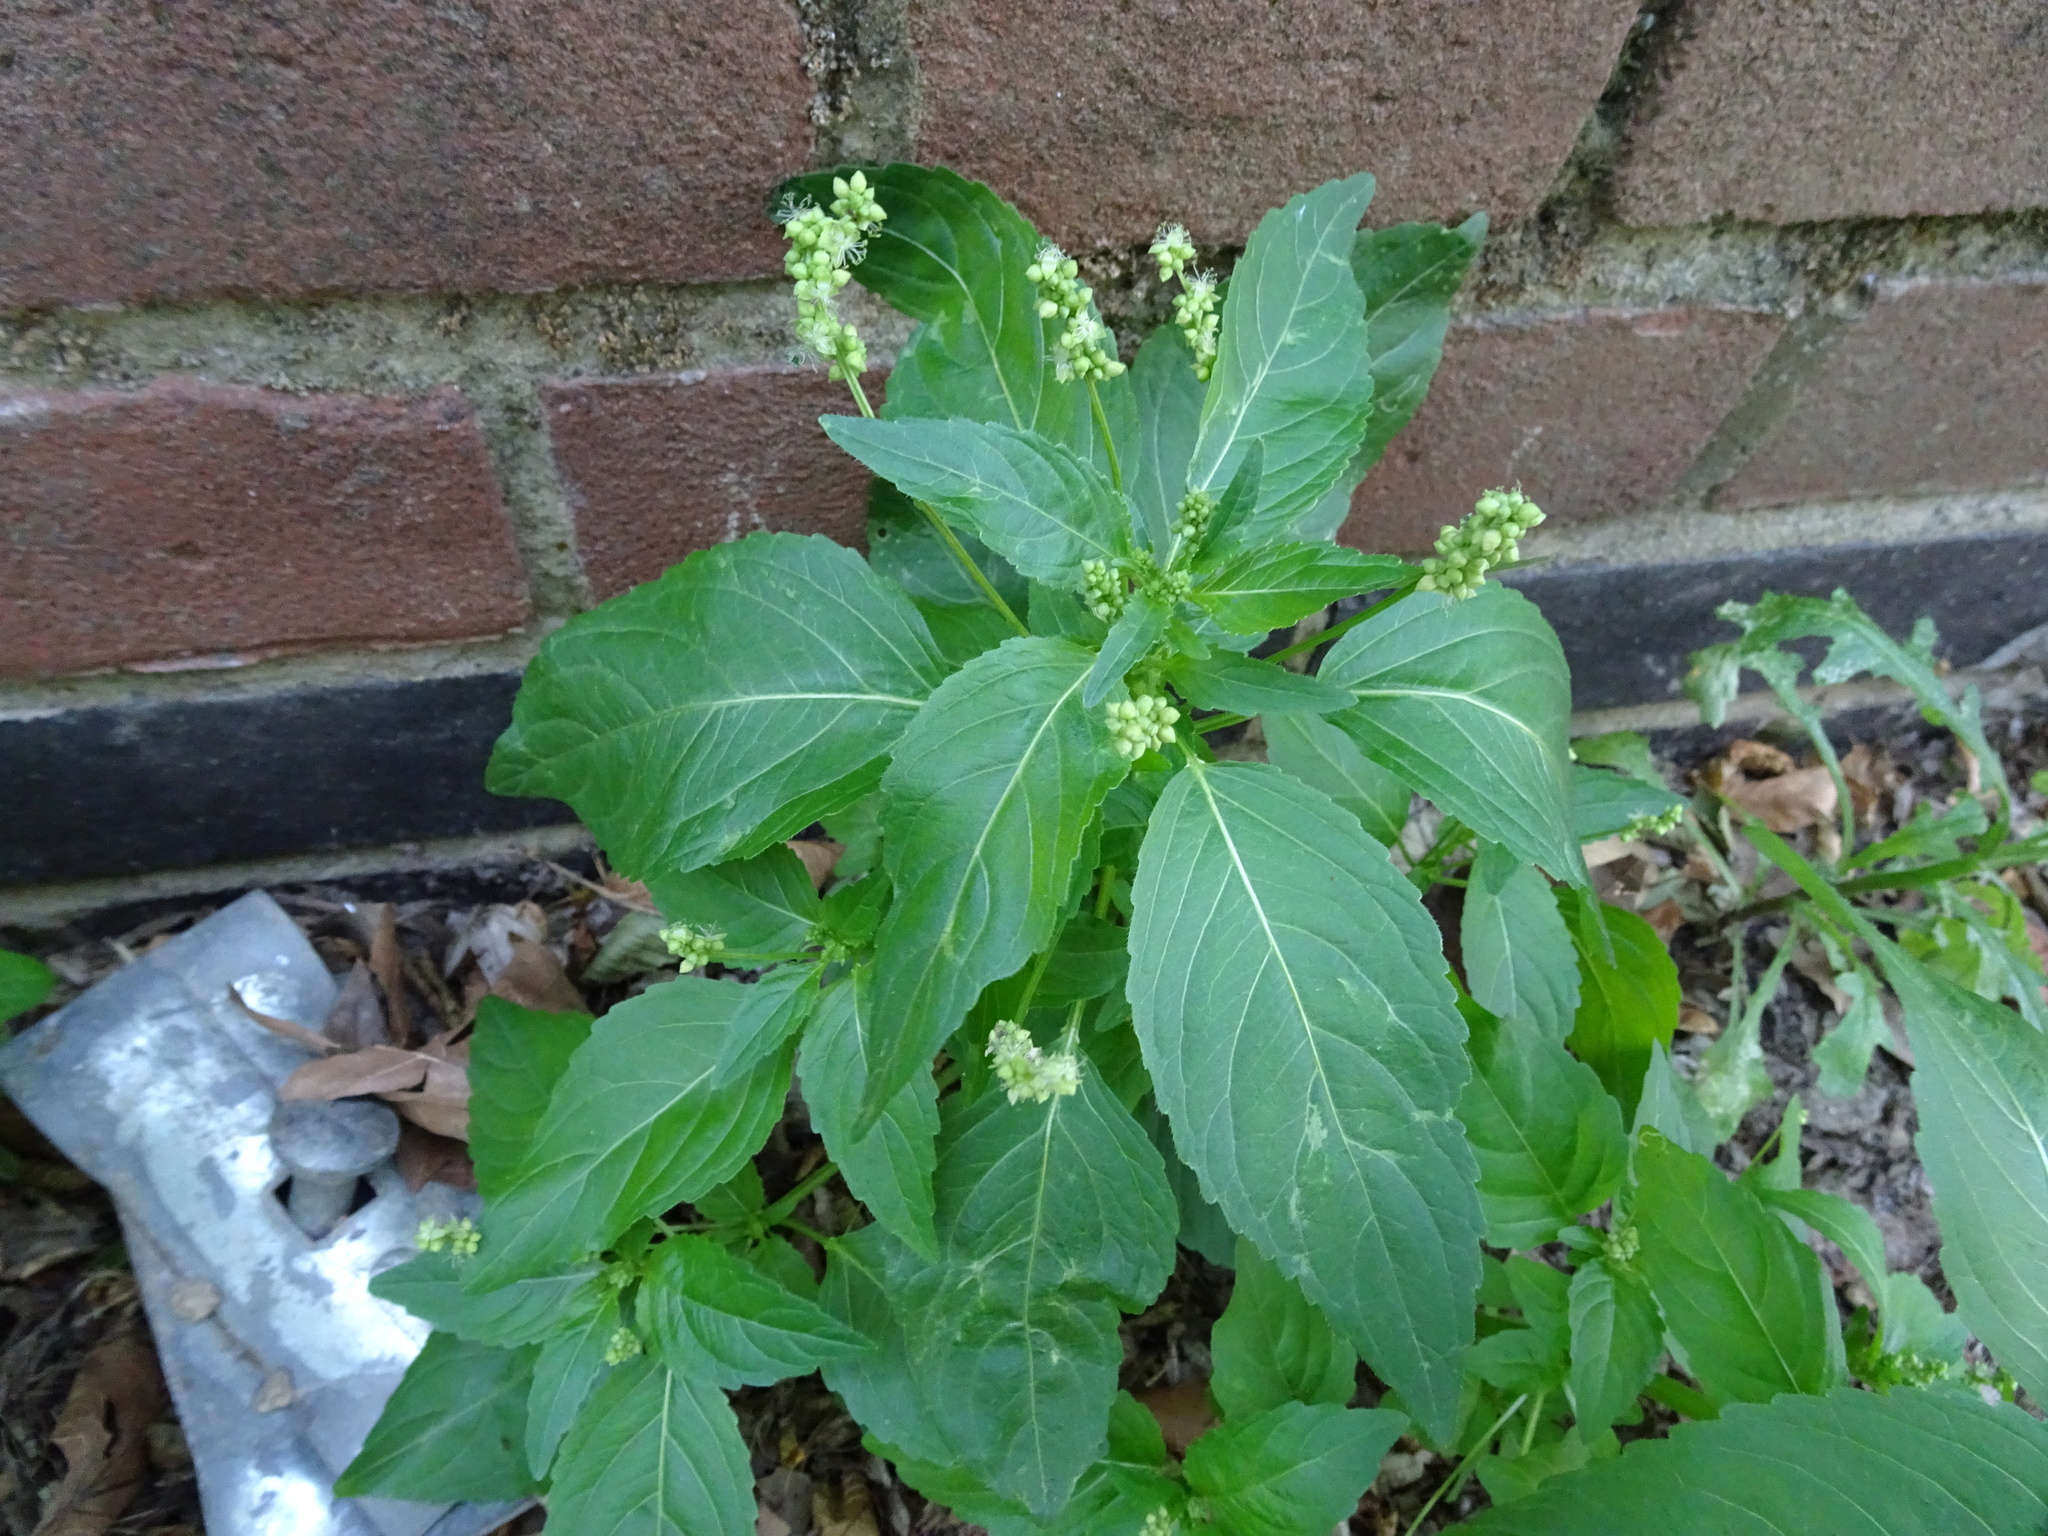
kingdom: Plantae
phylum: Tracheophyta
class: Magnoliopsida
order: Malpighiales
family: Euphorbiaceae
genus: Mercurialis
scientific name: Mercurialis annua
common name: Annual mercury
